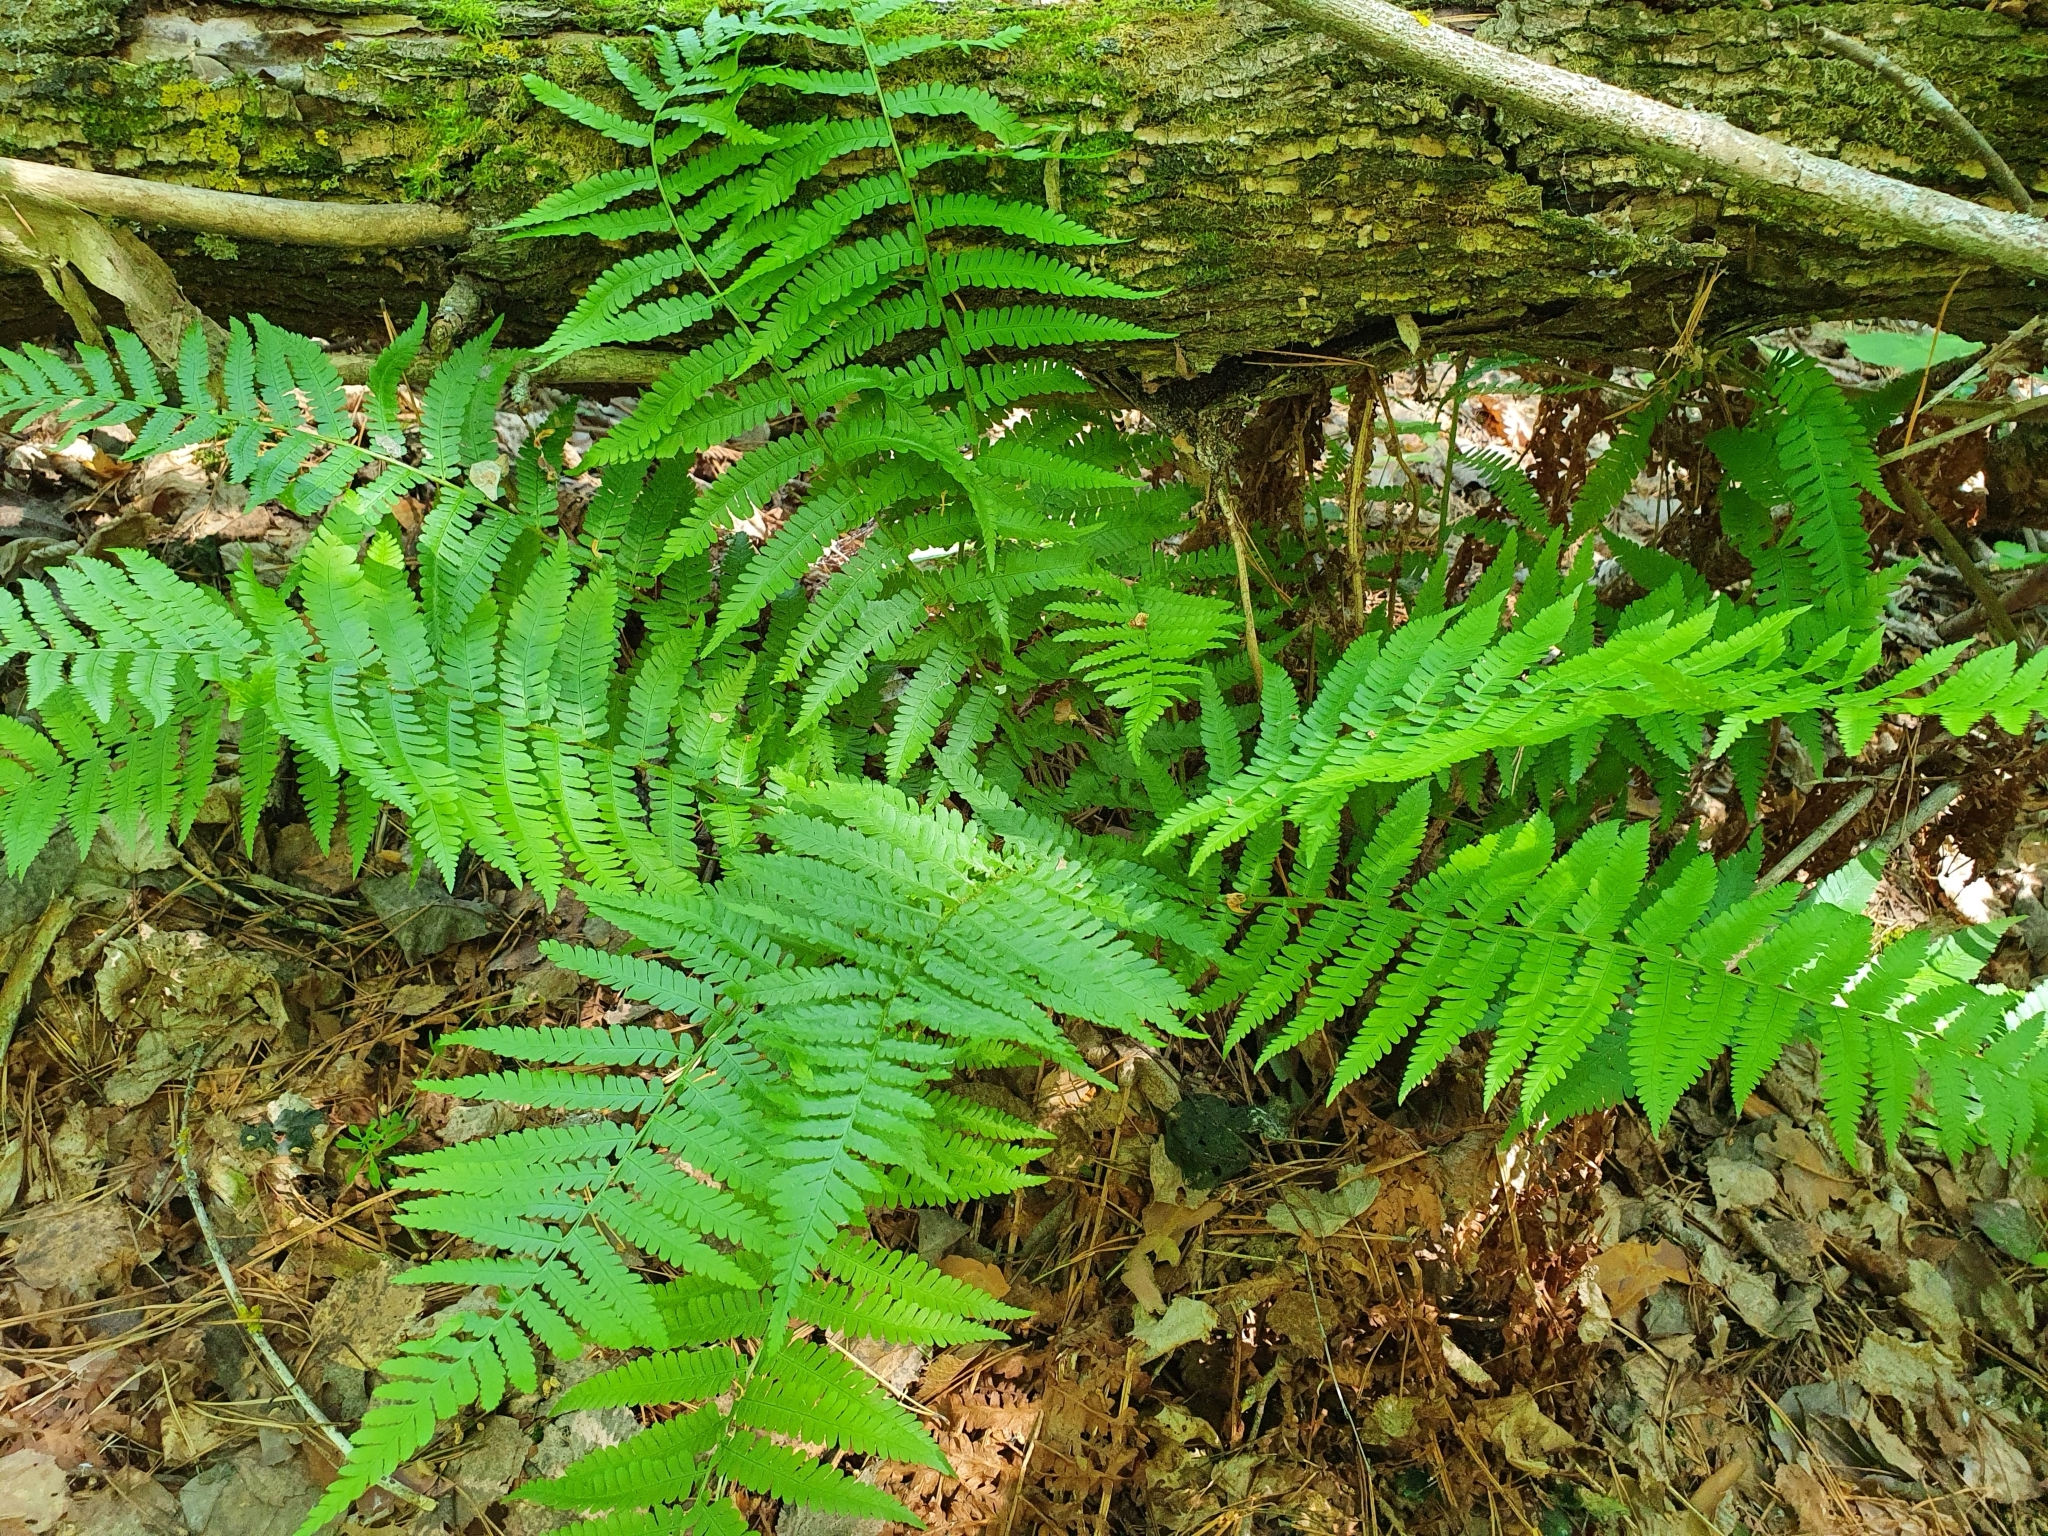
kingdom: Plantae
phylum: Tracheophyta
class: Polypodiopsida
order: Polypodiales
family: Dryopteridaceae
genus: Dryopteris
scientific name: Dryopteris filix-mas
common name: Male fern
